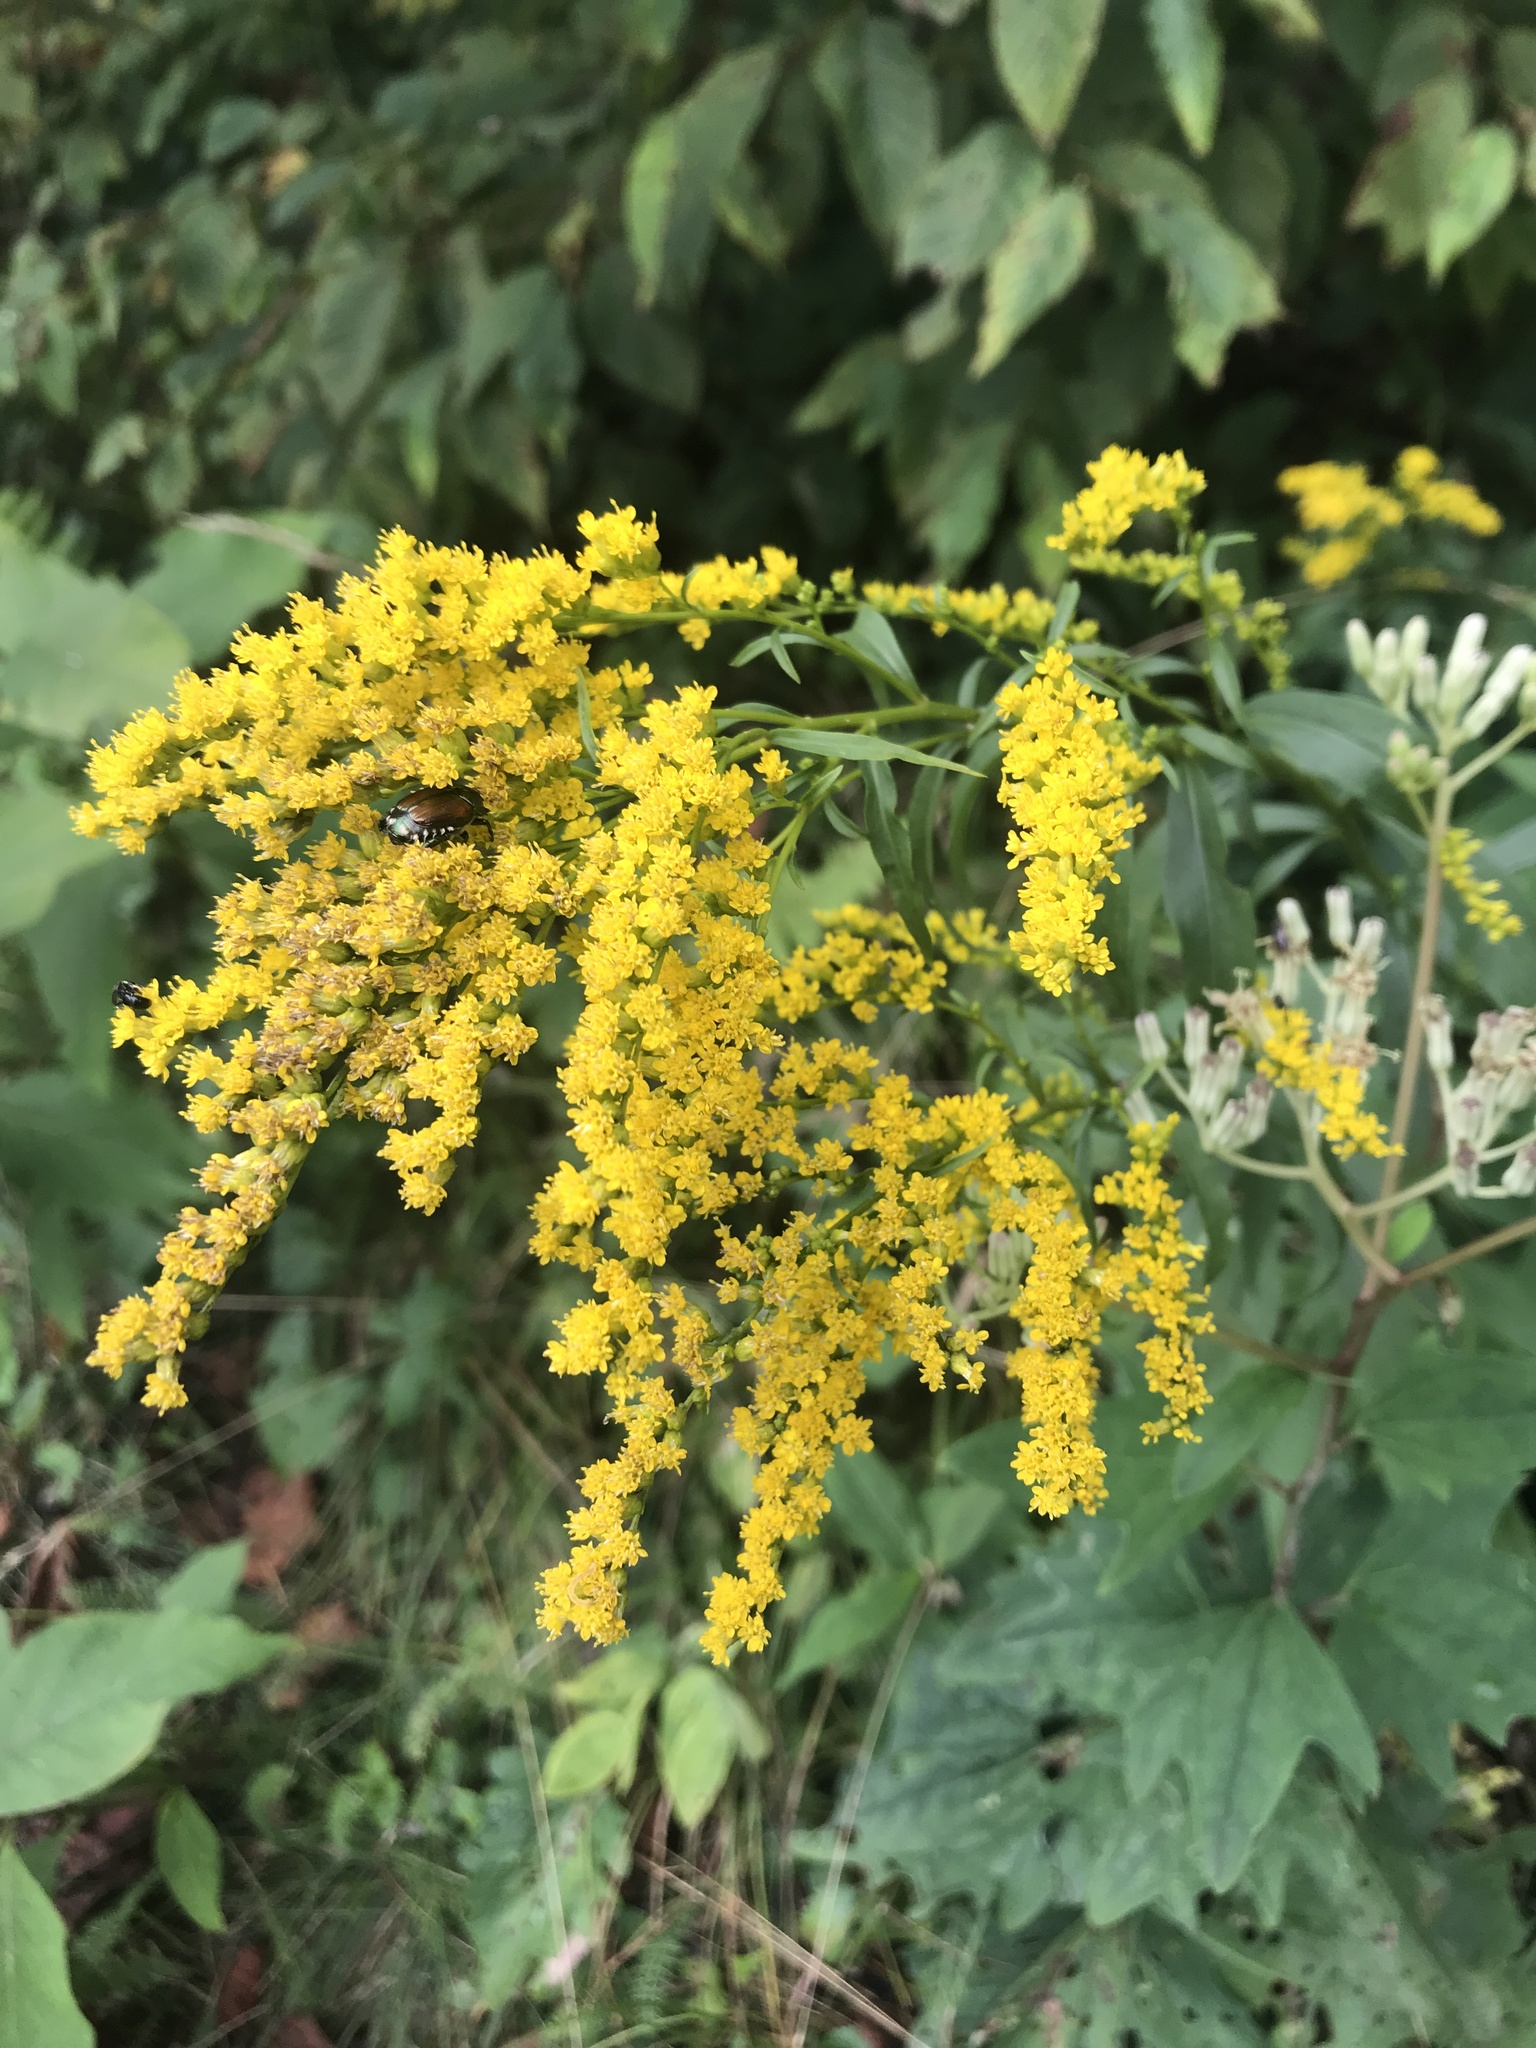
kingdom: Plantae
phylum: Tracheophyta
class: Magnoliopsida
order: Asterales
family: Asteraceae
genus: Solidago
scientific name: Solidago juncea
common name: Early goldenrod
